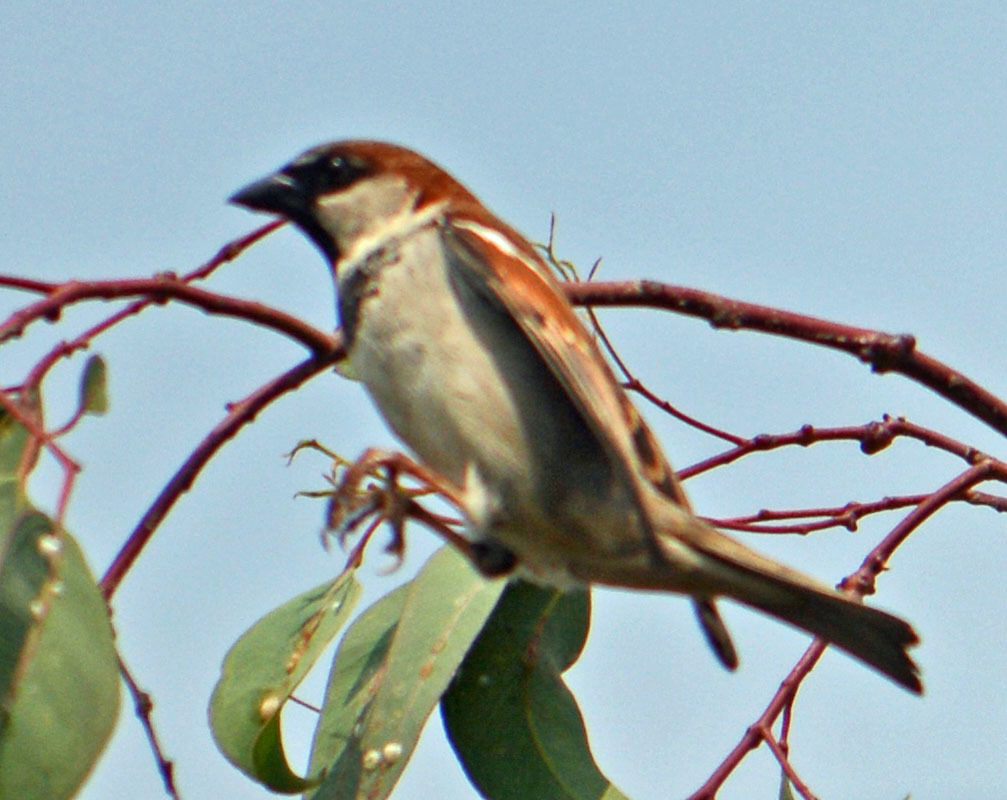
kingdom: Animalia
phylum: Chordata
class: Aves
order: Passeriformes
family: Passeridae
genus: Passer
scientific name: Passer domesticus
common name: House sparrow
